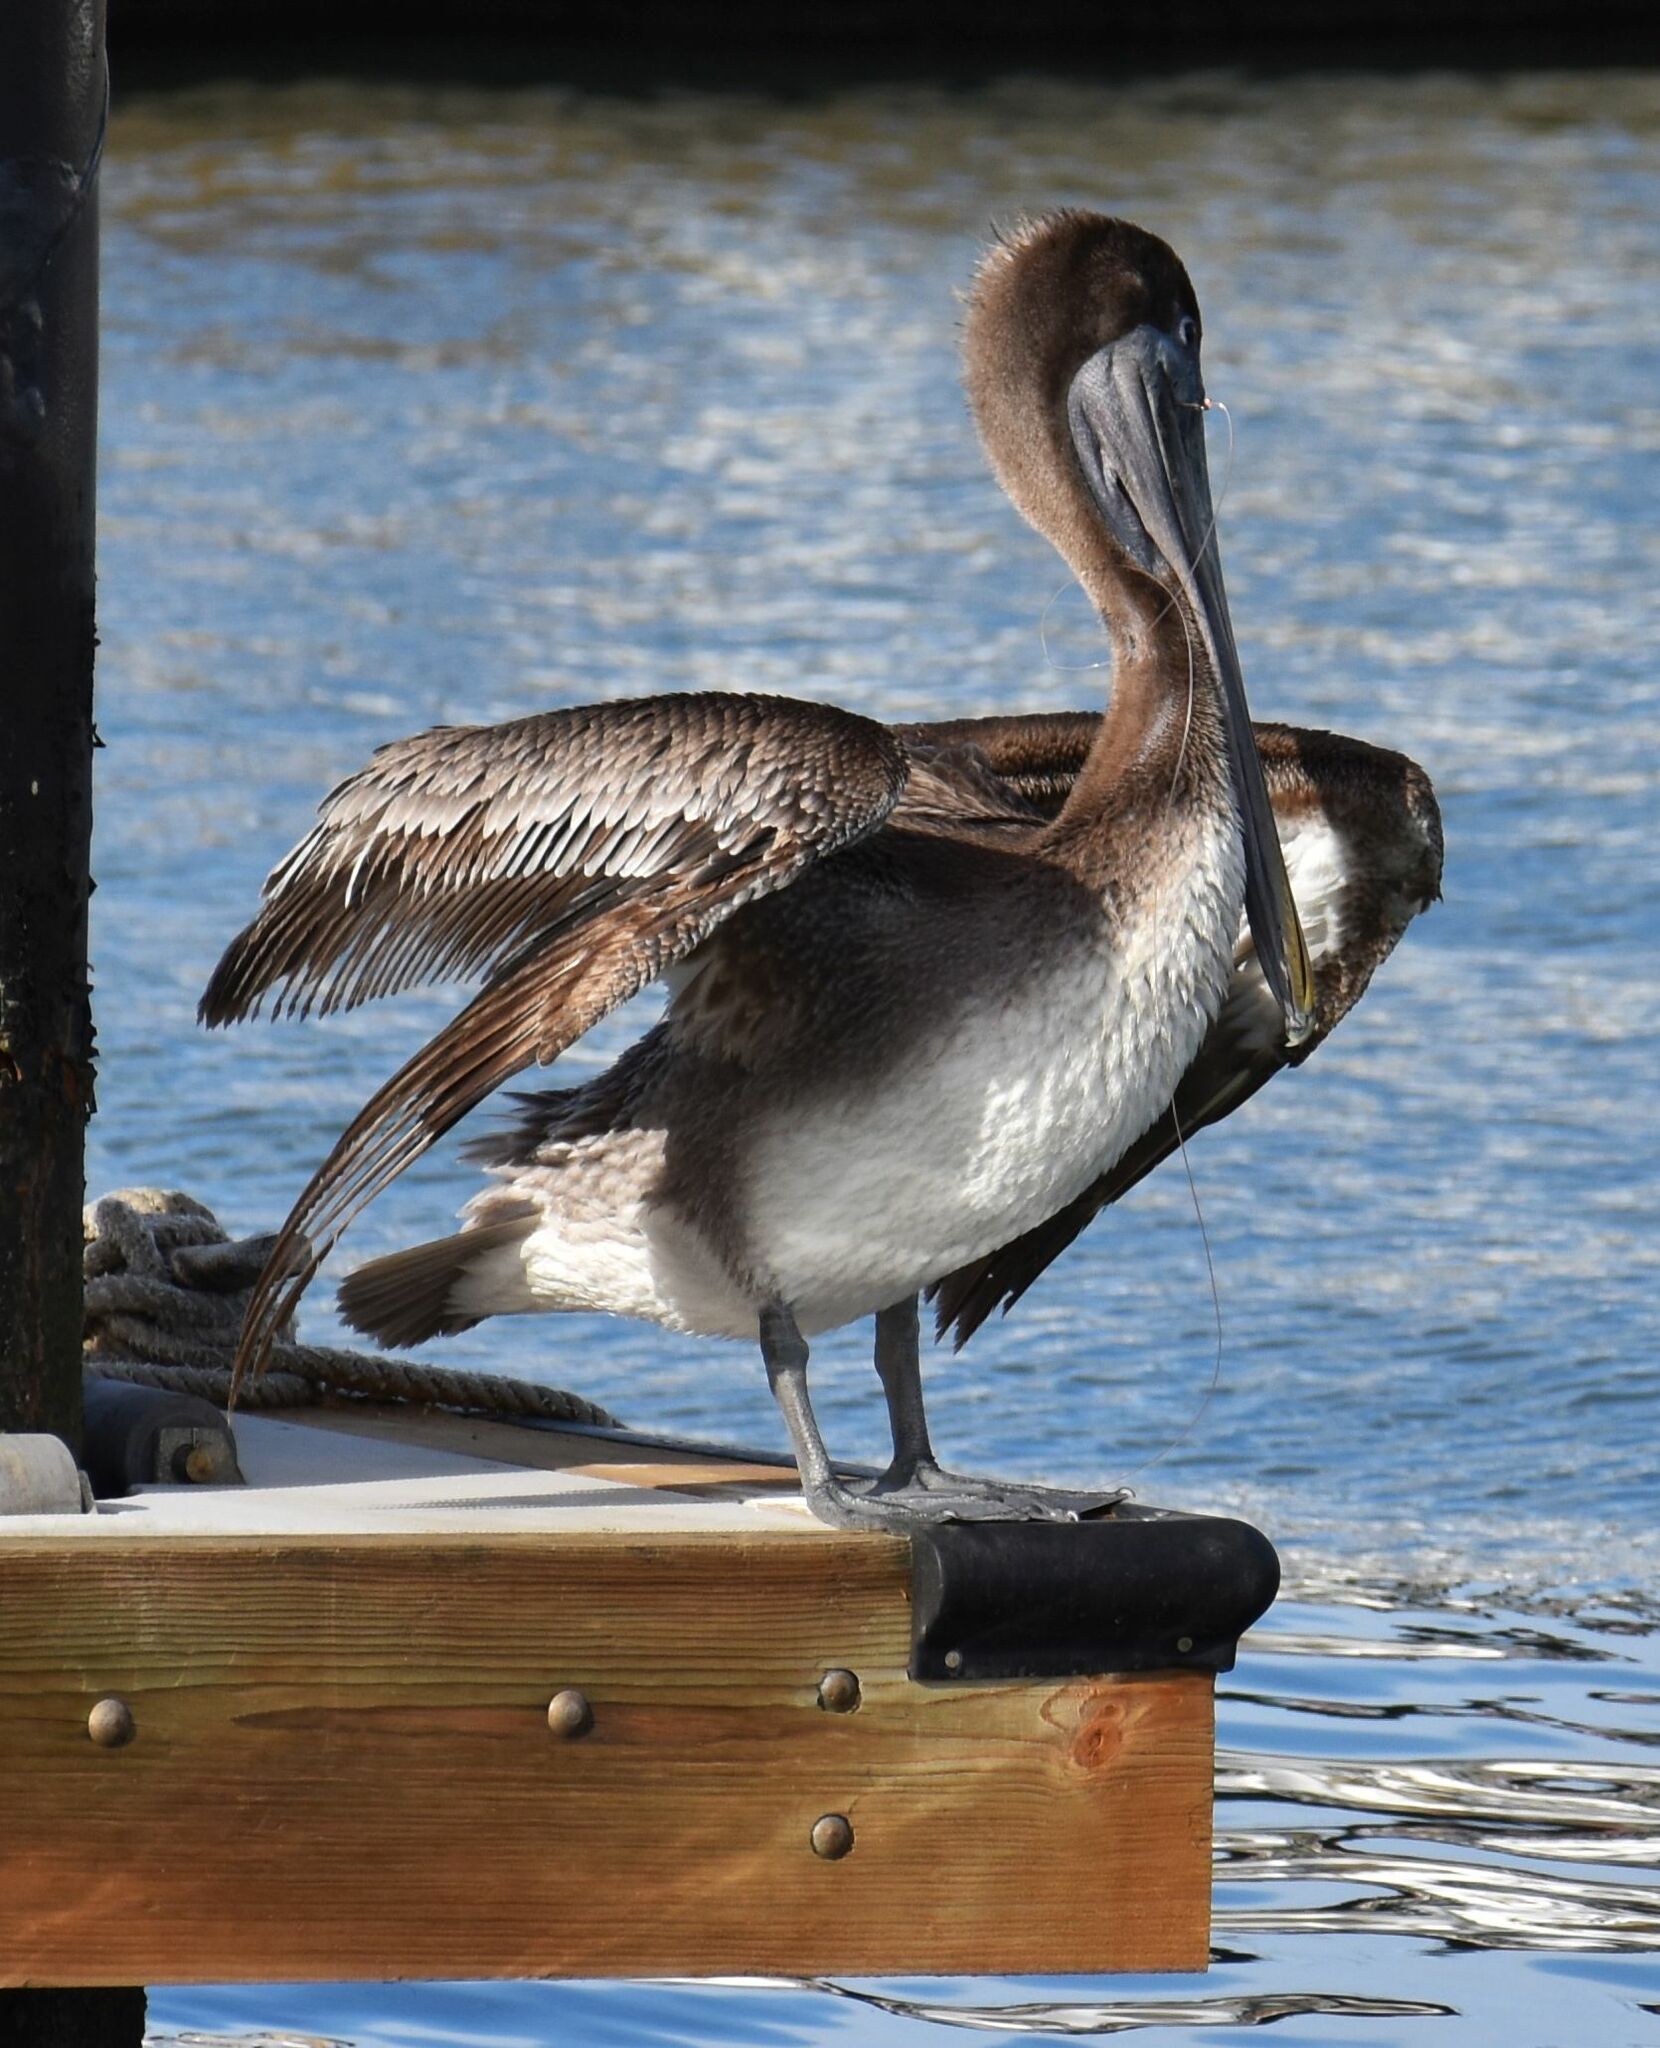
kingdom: Animalia
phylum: Chordata
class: Aves
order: Pelecaniformes
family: Pelecanidae
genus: Pelecanus
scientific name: Pelecanus occidentalis
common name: Brown pelican
